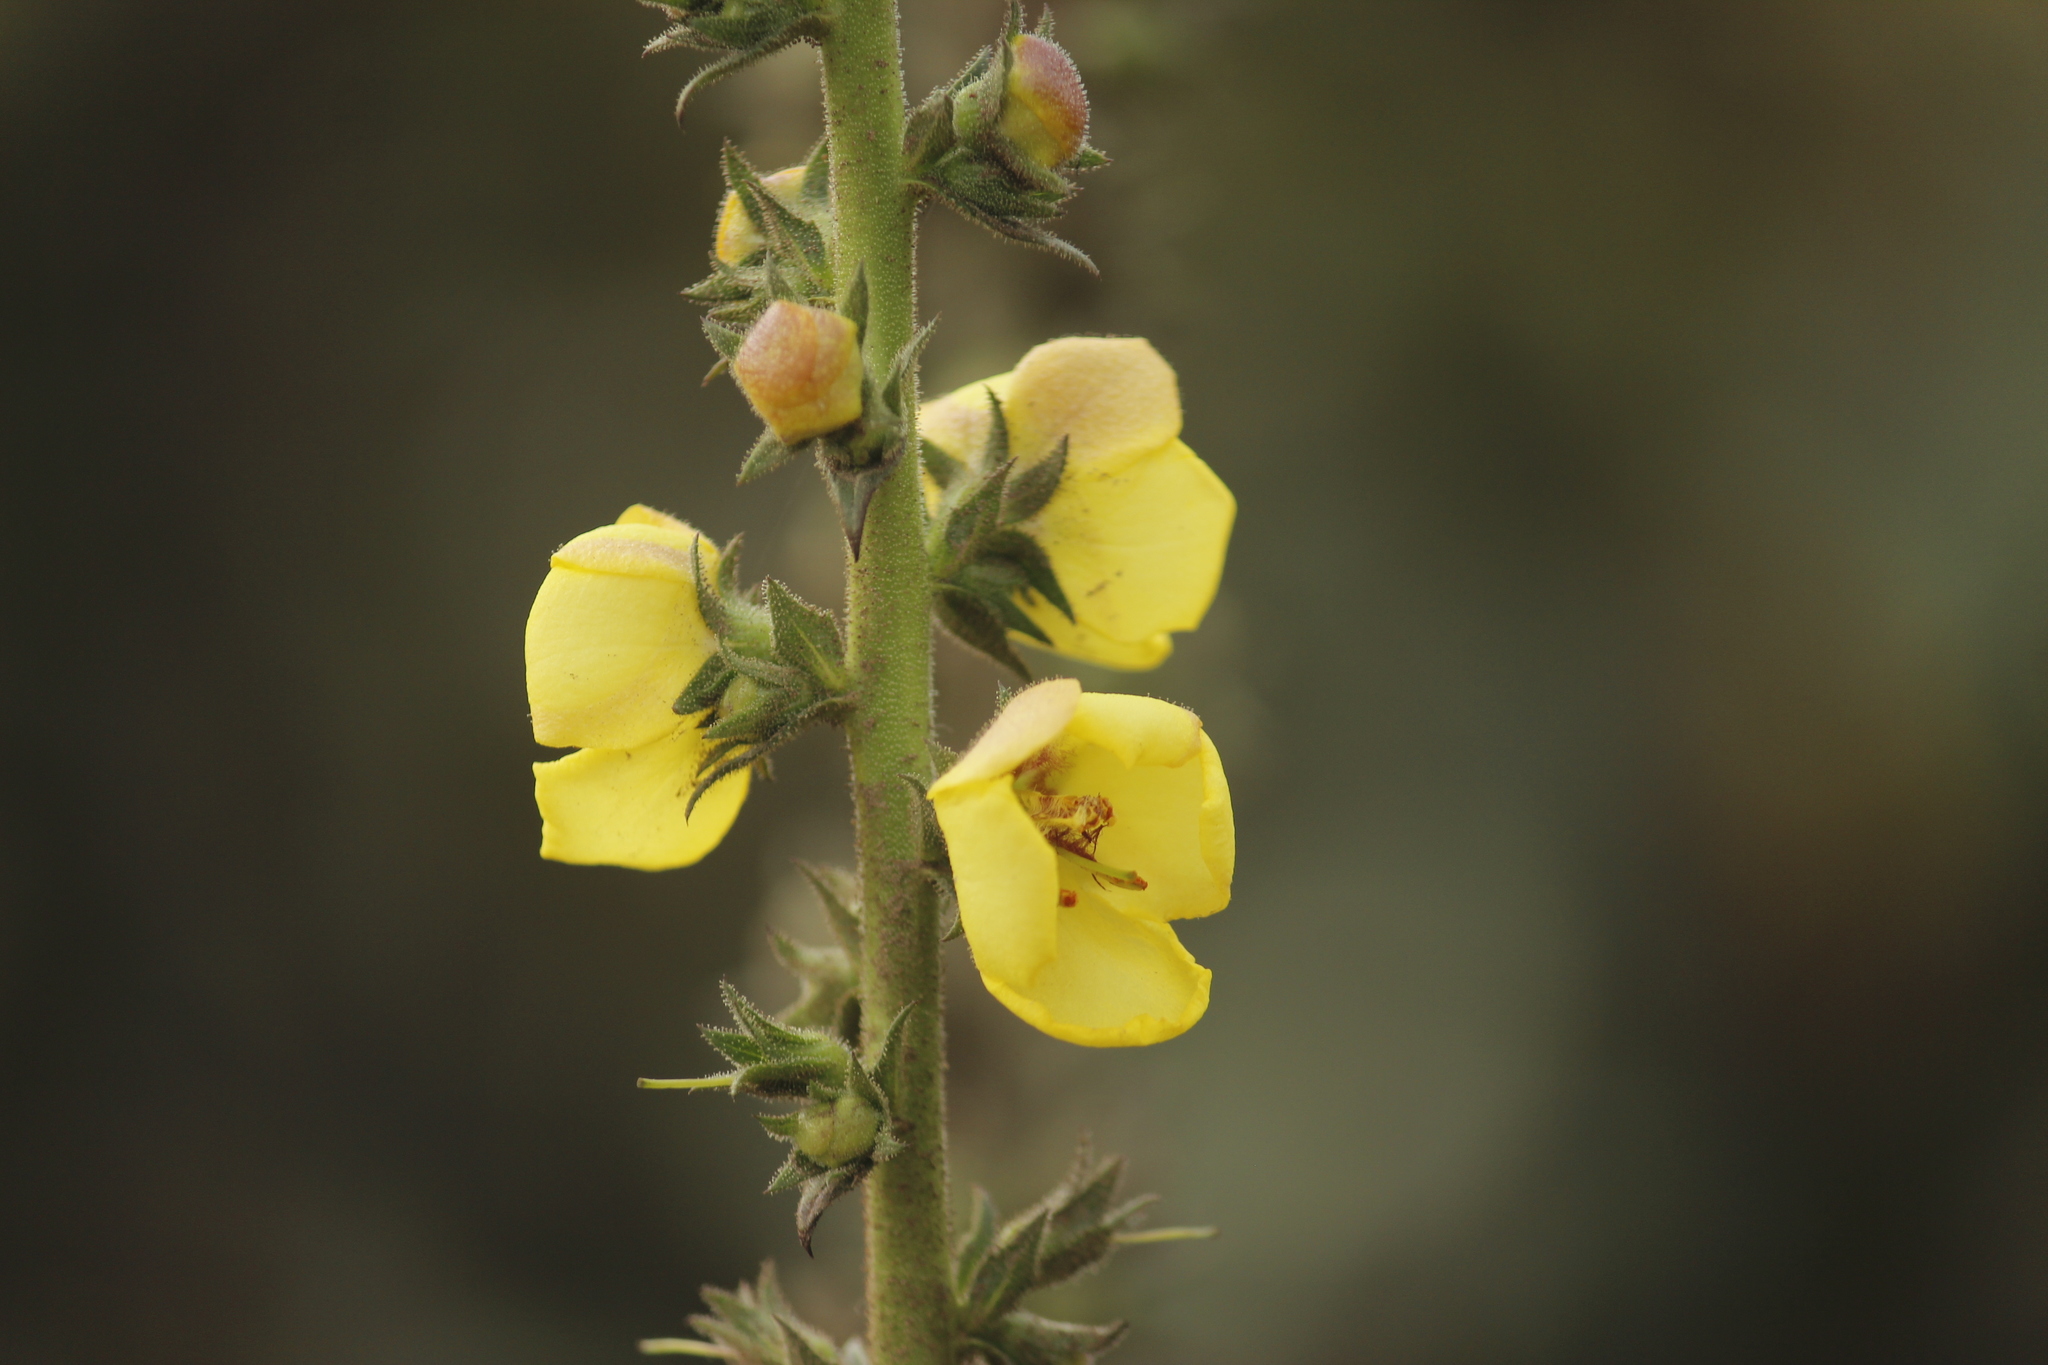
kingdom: Plantae
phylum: Tracheophyta
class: Magnoliopsida
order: Lamiales
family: Scrophulariaceae
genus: Verbascum
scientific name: Verbascum virgatum
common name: Twiggy mullein
